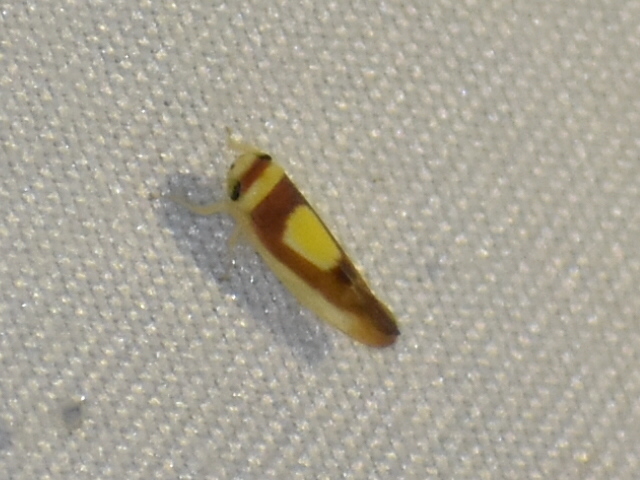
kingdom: Animalia
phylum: Arthropoda
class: Insecta
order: Hemiptera
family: Cicadellidae
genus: Colladonus
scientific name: Colladonus clitellarius
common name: The saddleback leafhopper
